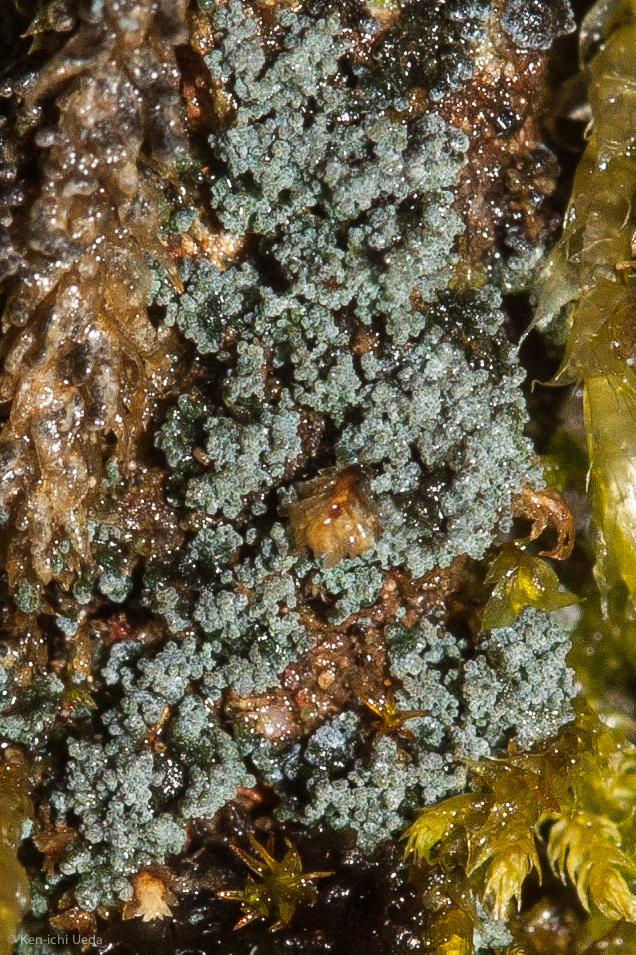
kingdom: Fungi
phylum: Ascomycota
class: Lecanoromycetes
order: Peltigerales
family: Pannariaceae
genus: Fuscopannaria
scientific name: Fuscopannaria cyanolepra
